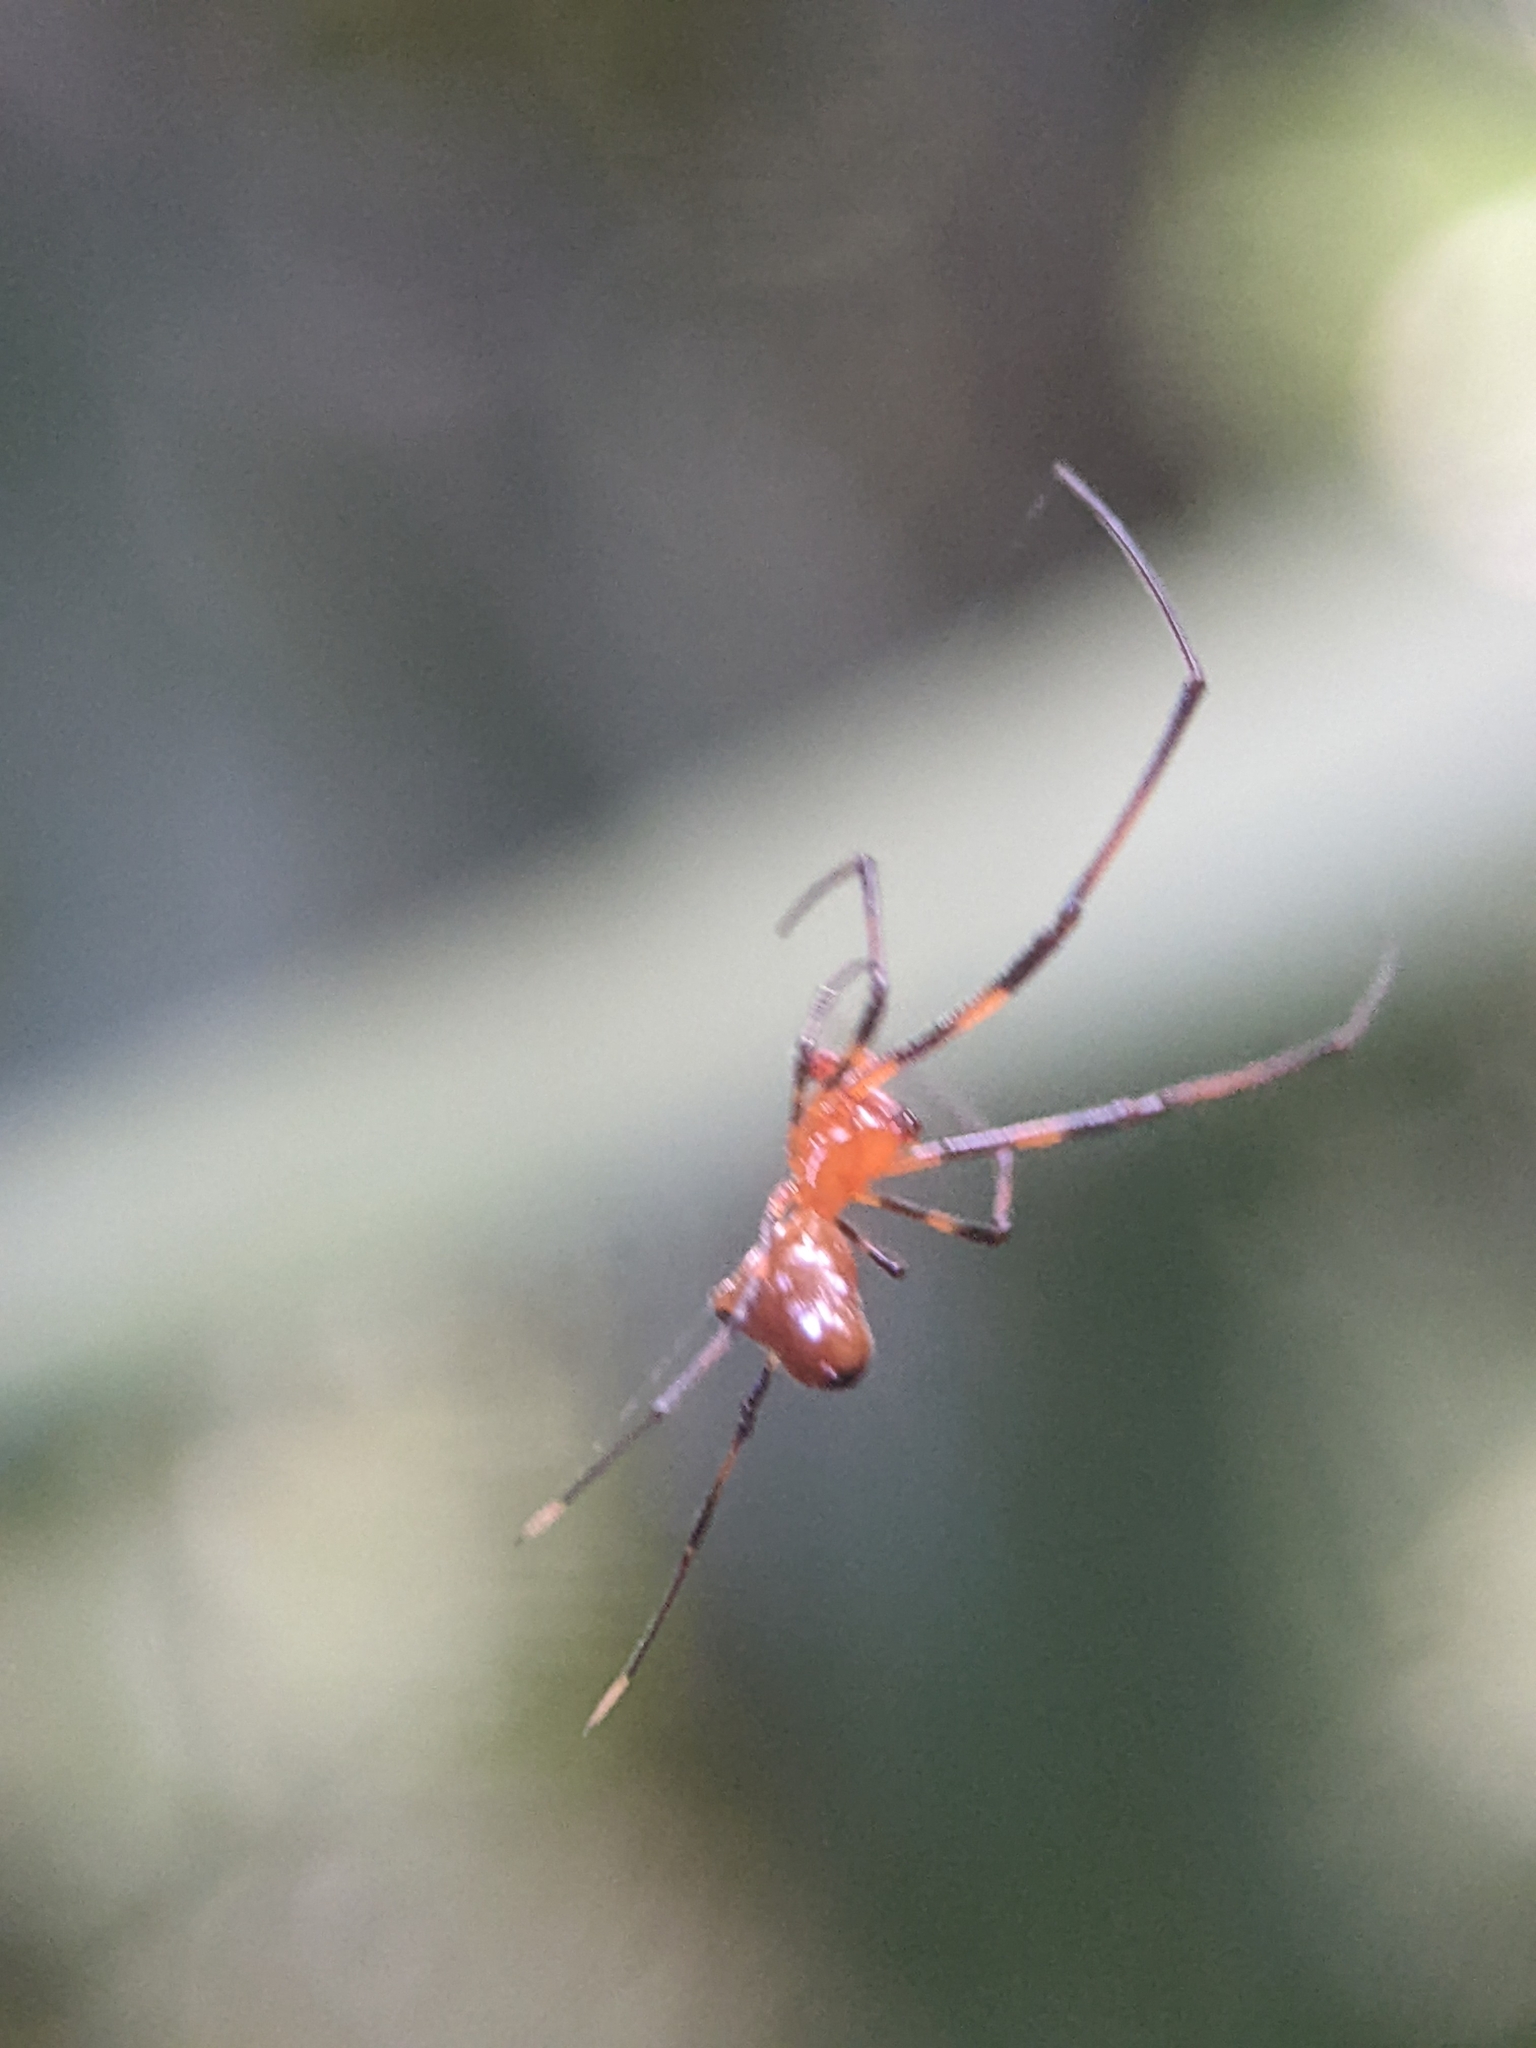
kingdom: Animalia
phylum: Arthropoda
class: Arachnida
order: Araneae
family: Theridiidae
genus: Argyrodes
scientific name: Argyrodes flavescens
